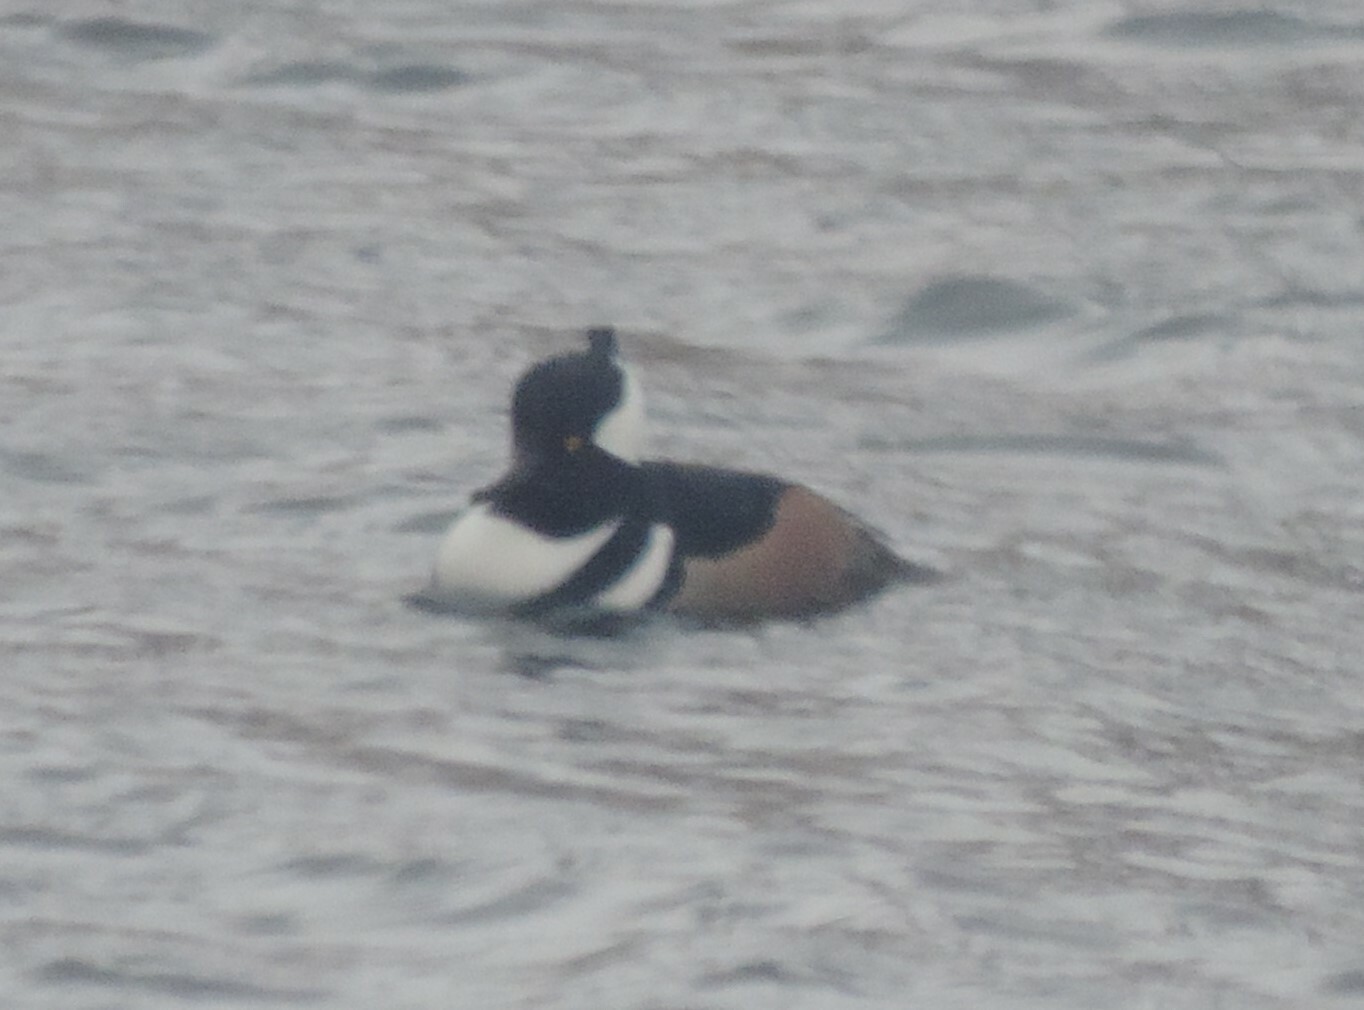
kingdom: Animalia
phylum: Chordata
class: Aves
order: Anseriformes
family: Anatidae
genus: Lophodytes
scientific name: Lophodytes cucullatus
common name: Hooded merganser
